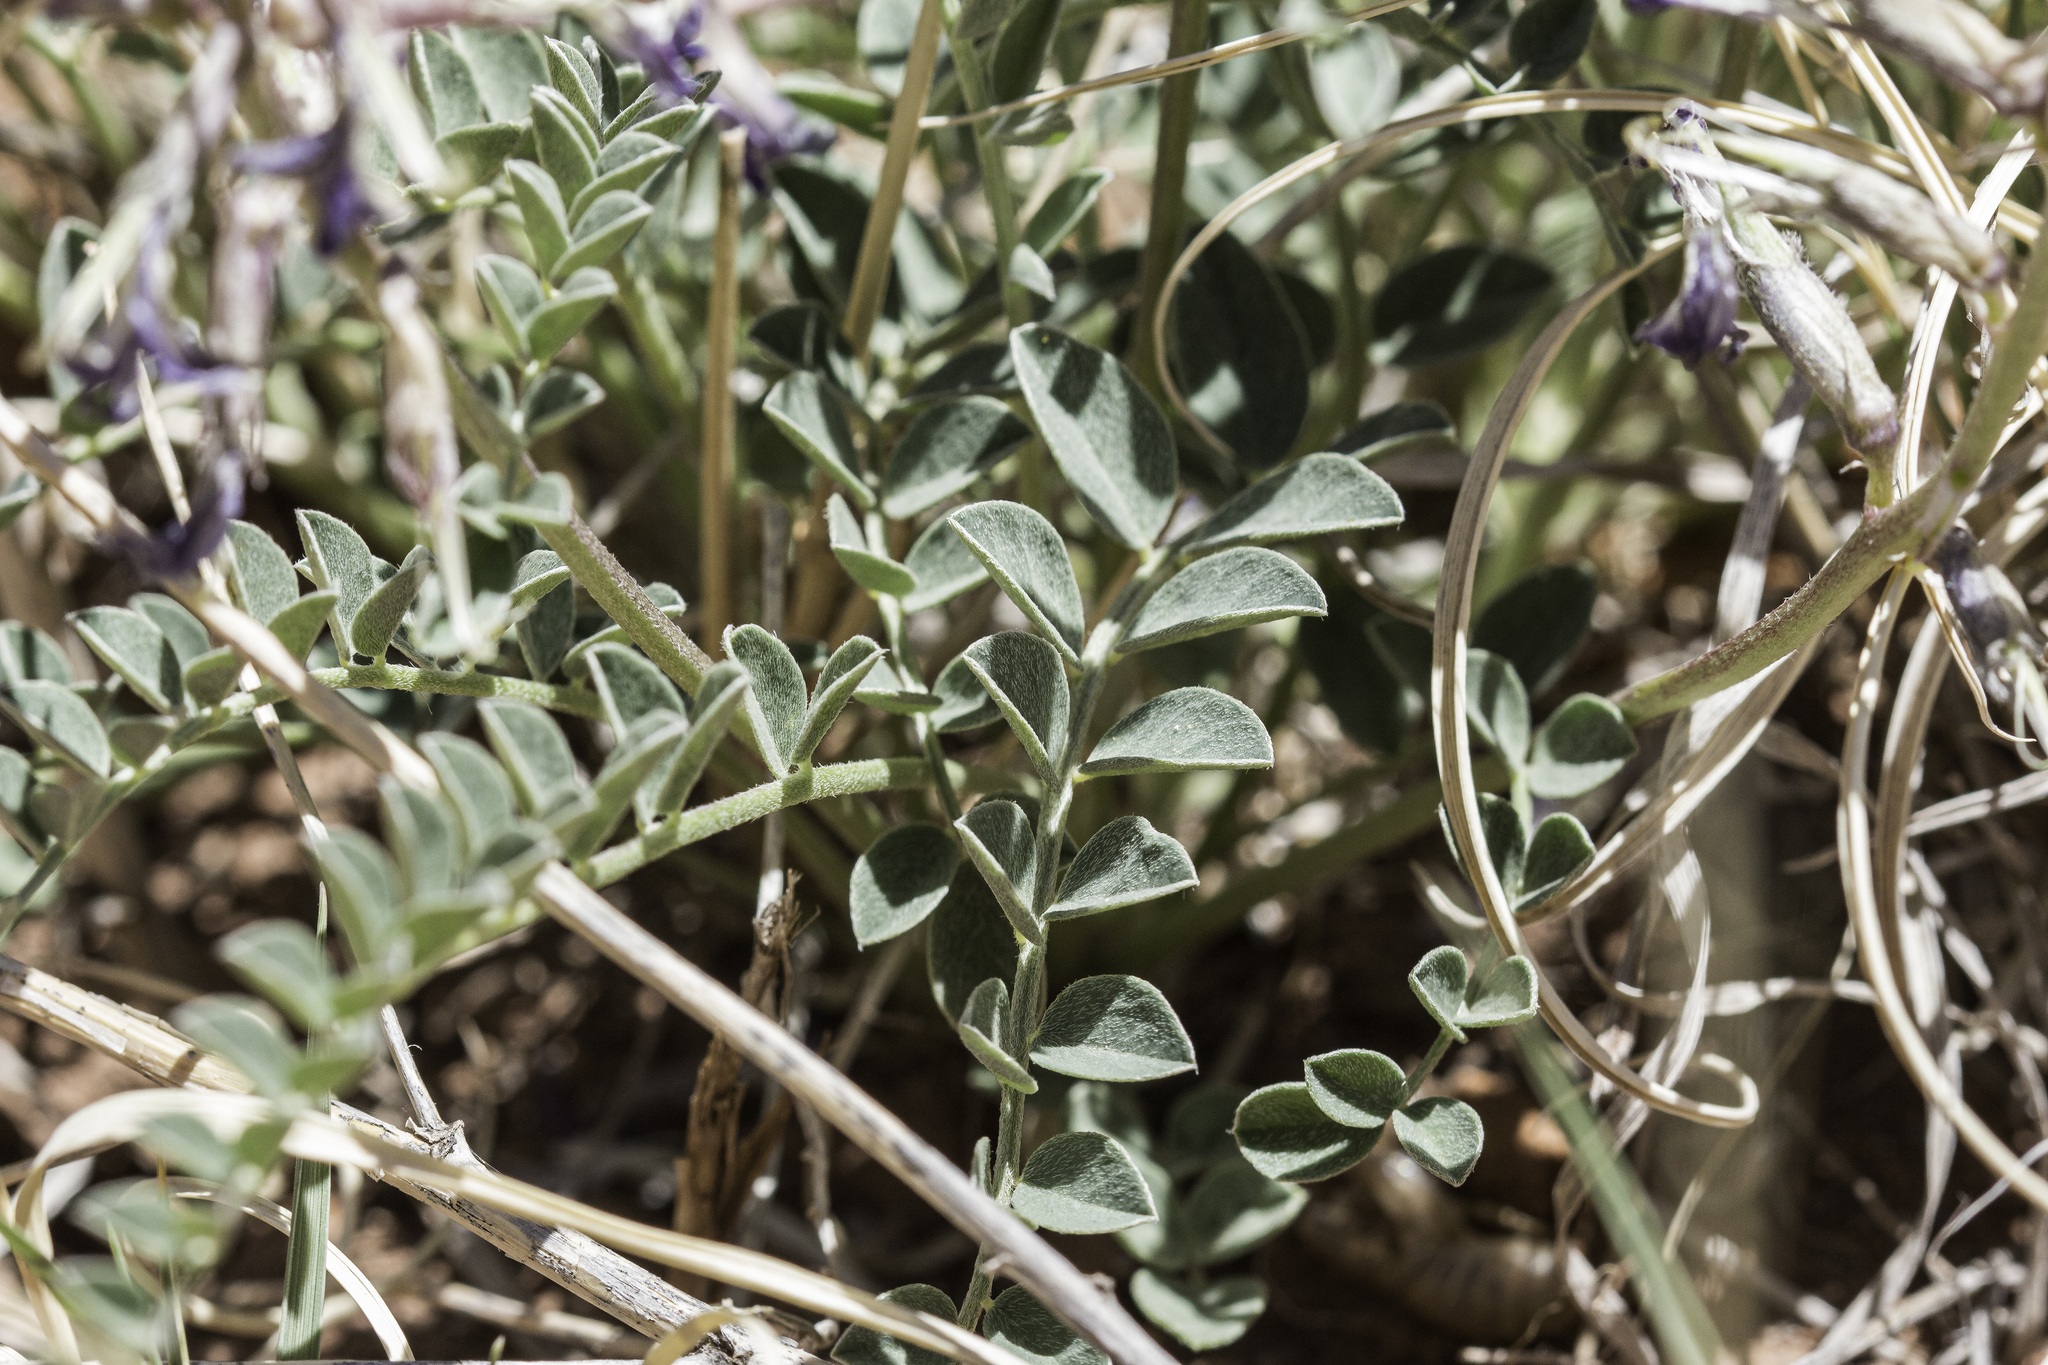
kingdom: Plantae
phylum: Tracheophyta
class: Magnoliopsida
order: Fabales
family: Fabaceae
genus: Astragalus
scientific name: Astragalus cyaneus
